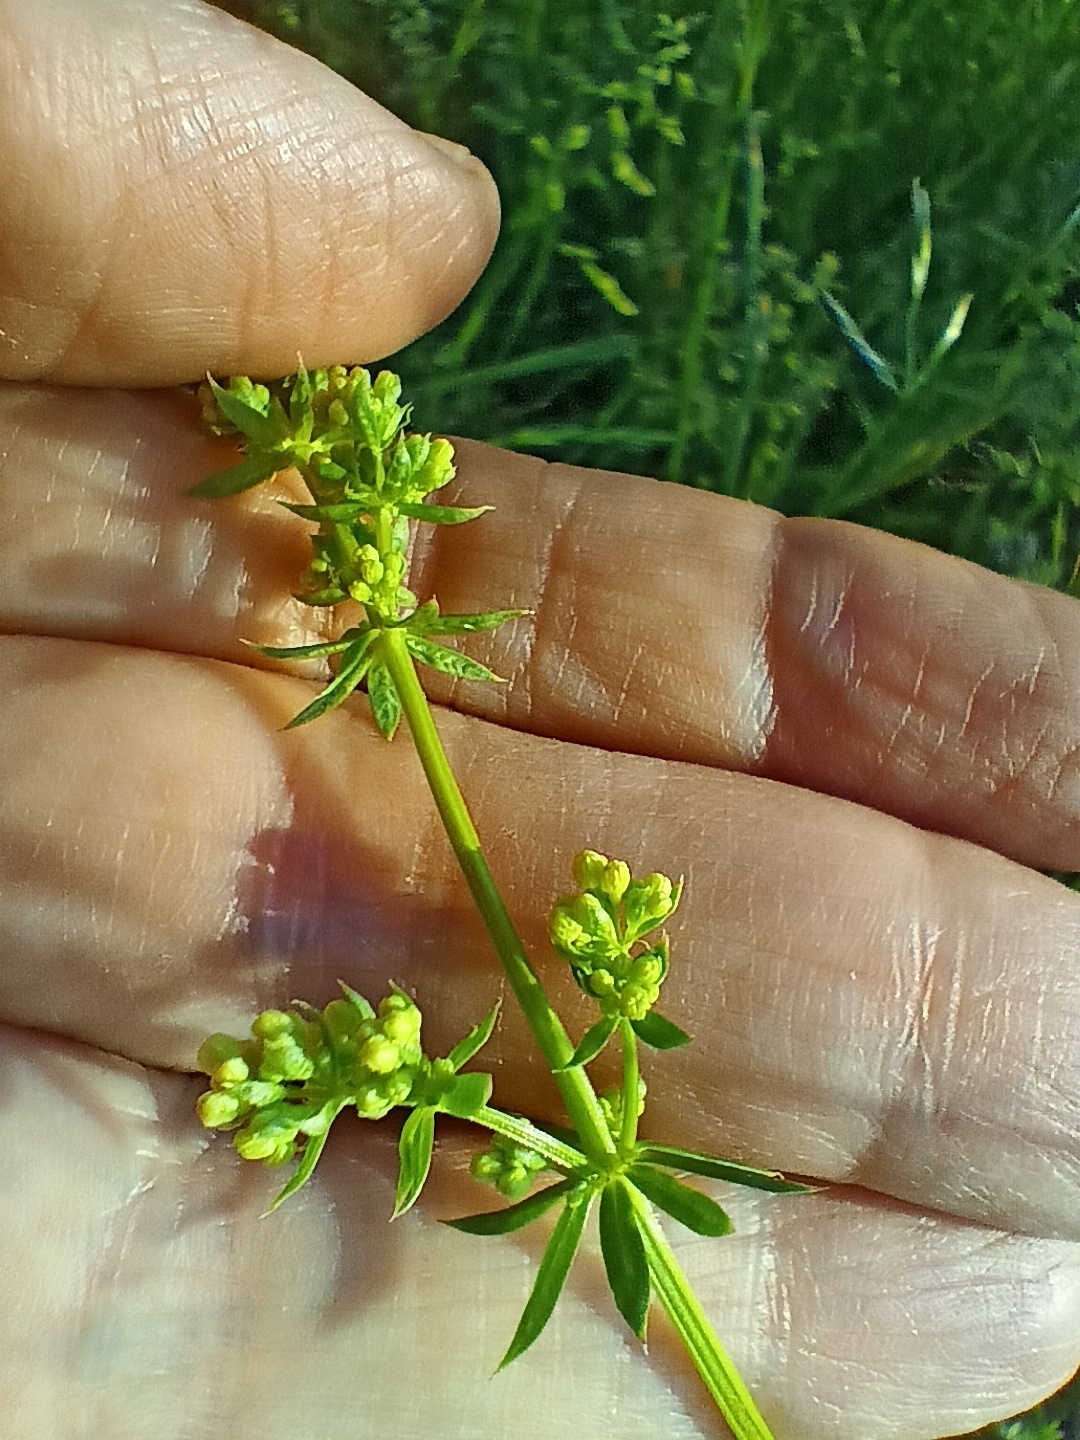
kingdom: Plantae
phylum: Tracheophyta
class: Magnoliopsida
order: Gentianales
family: Rubiaceae
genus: Galium
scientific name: Galium mollugo
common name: Hedge bedstraw
